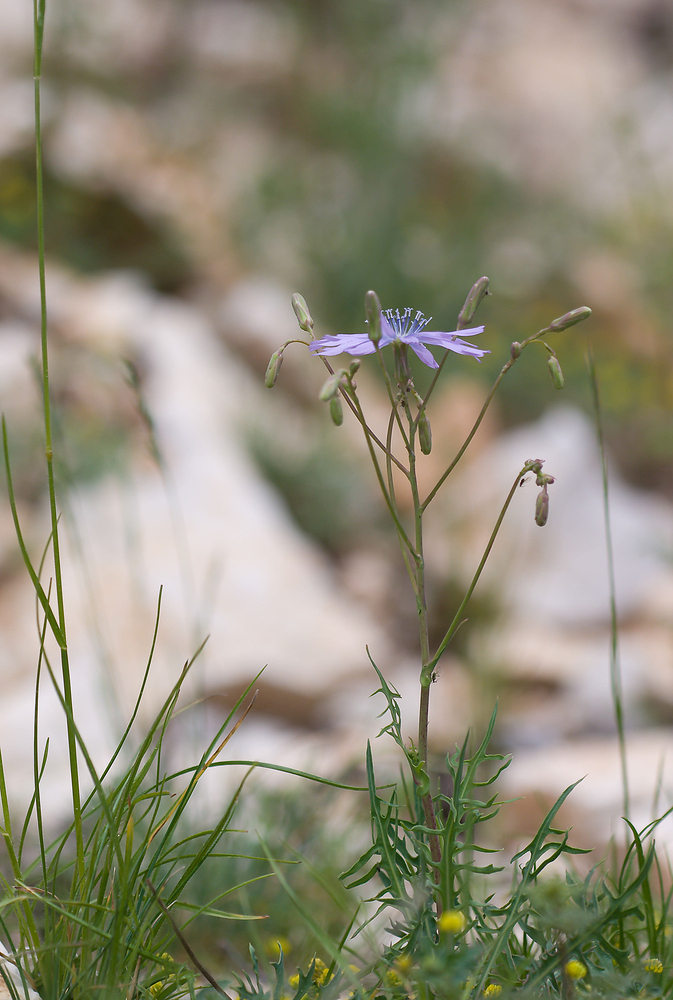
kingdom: Plantae
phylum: Tracheophyta
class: Magnoliopsida
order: Asterales
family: Asteraceae
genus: Lactuca
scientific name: Lactuca perennis
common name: Mountain lettuce
